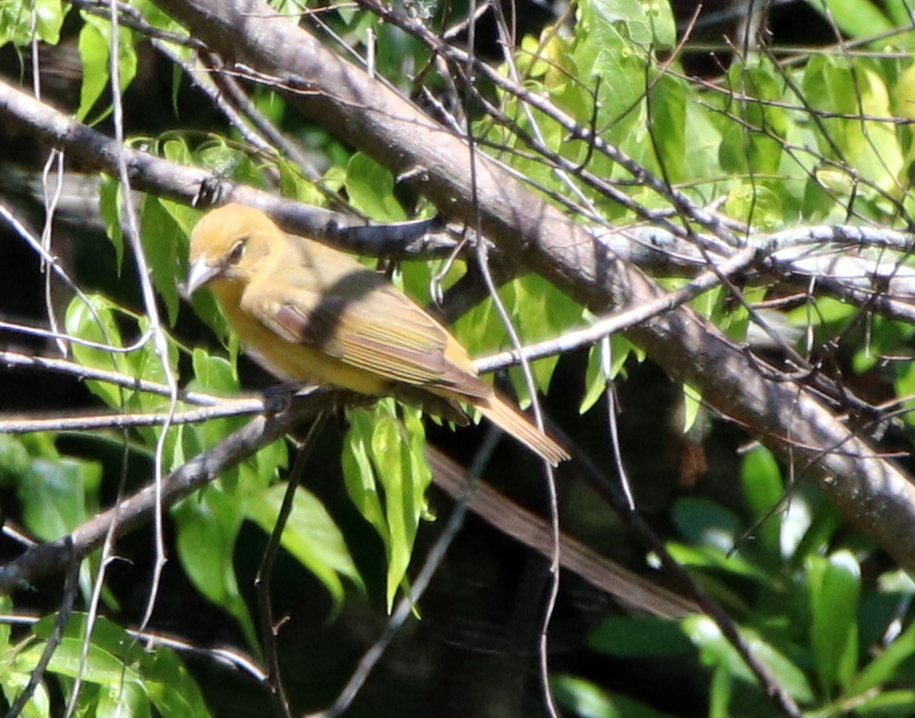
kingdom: Animalia
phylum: Chordata
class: Aves
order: Passeriformes
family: Cardinalidae
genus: Piranga
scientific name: Piranga rubra
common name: Summer tanager
